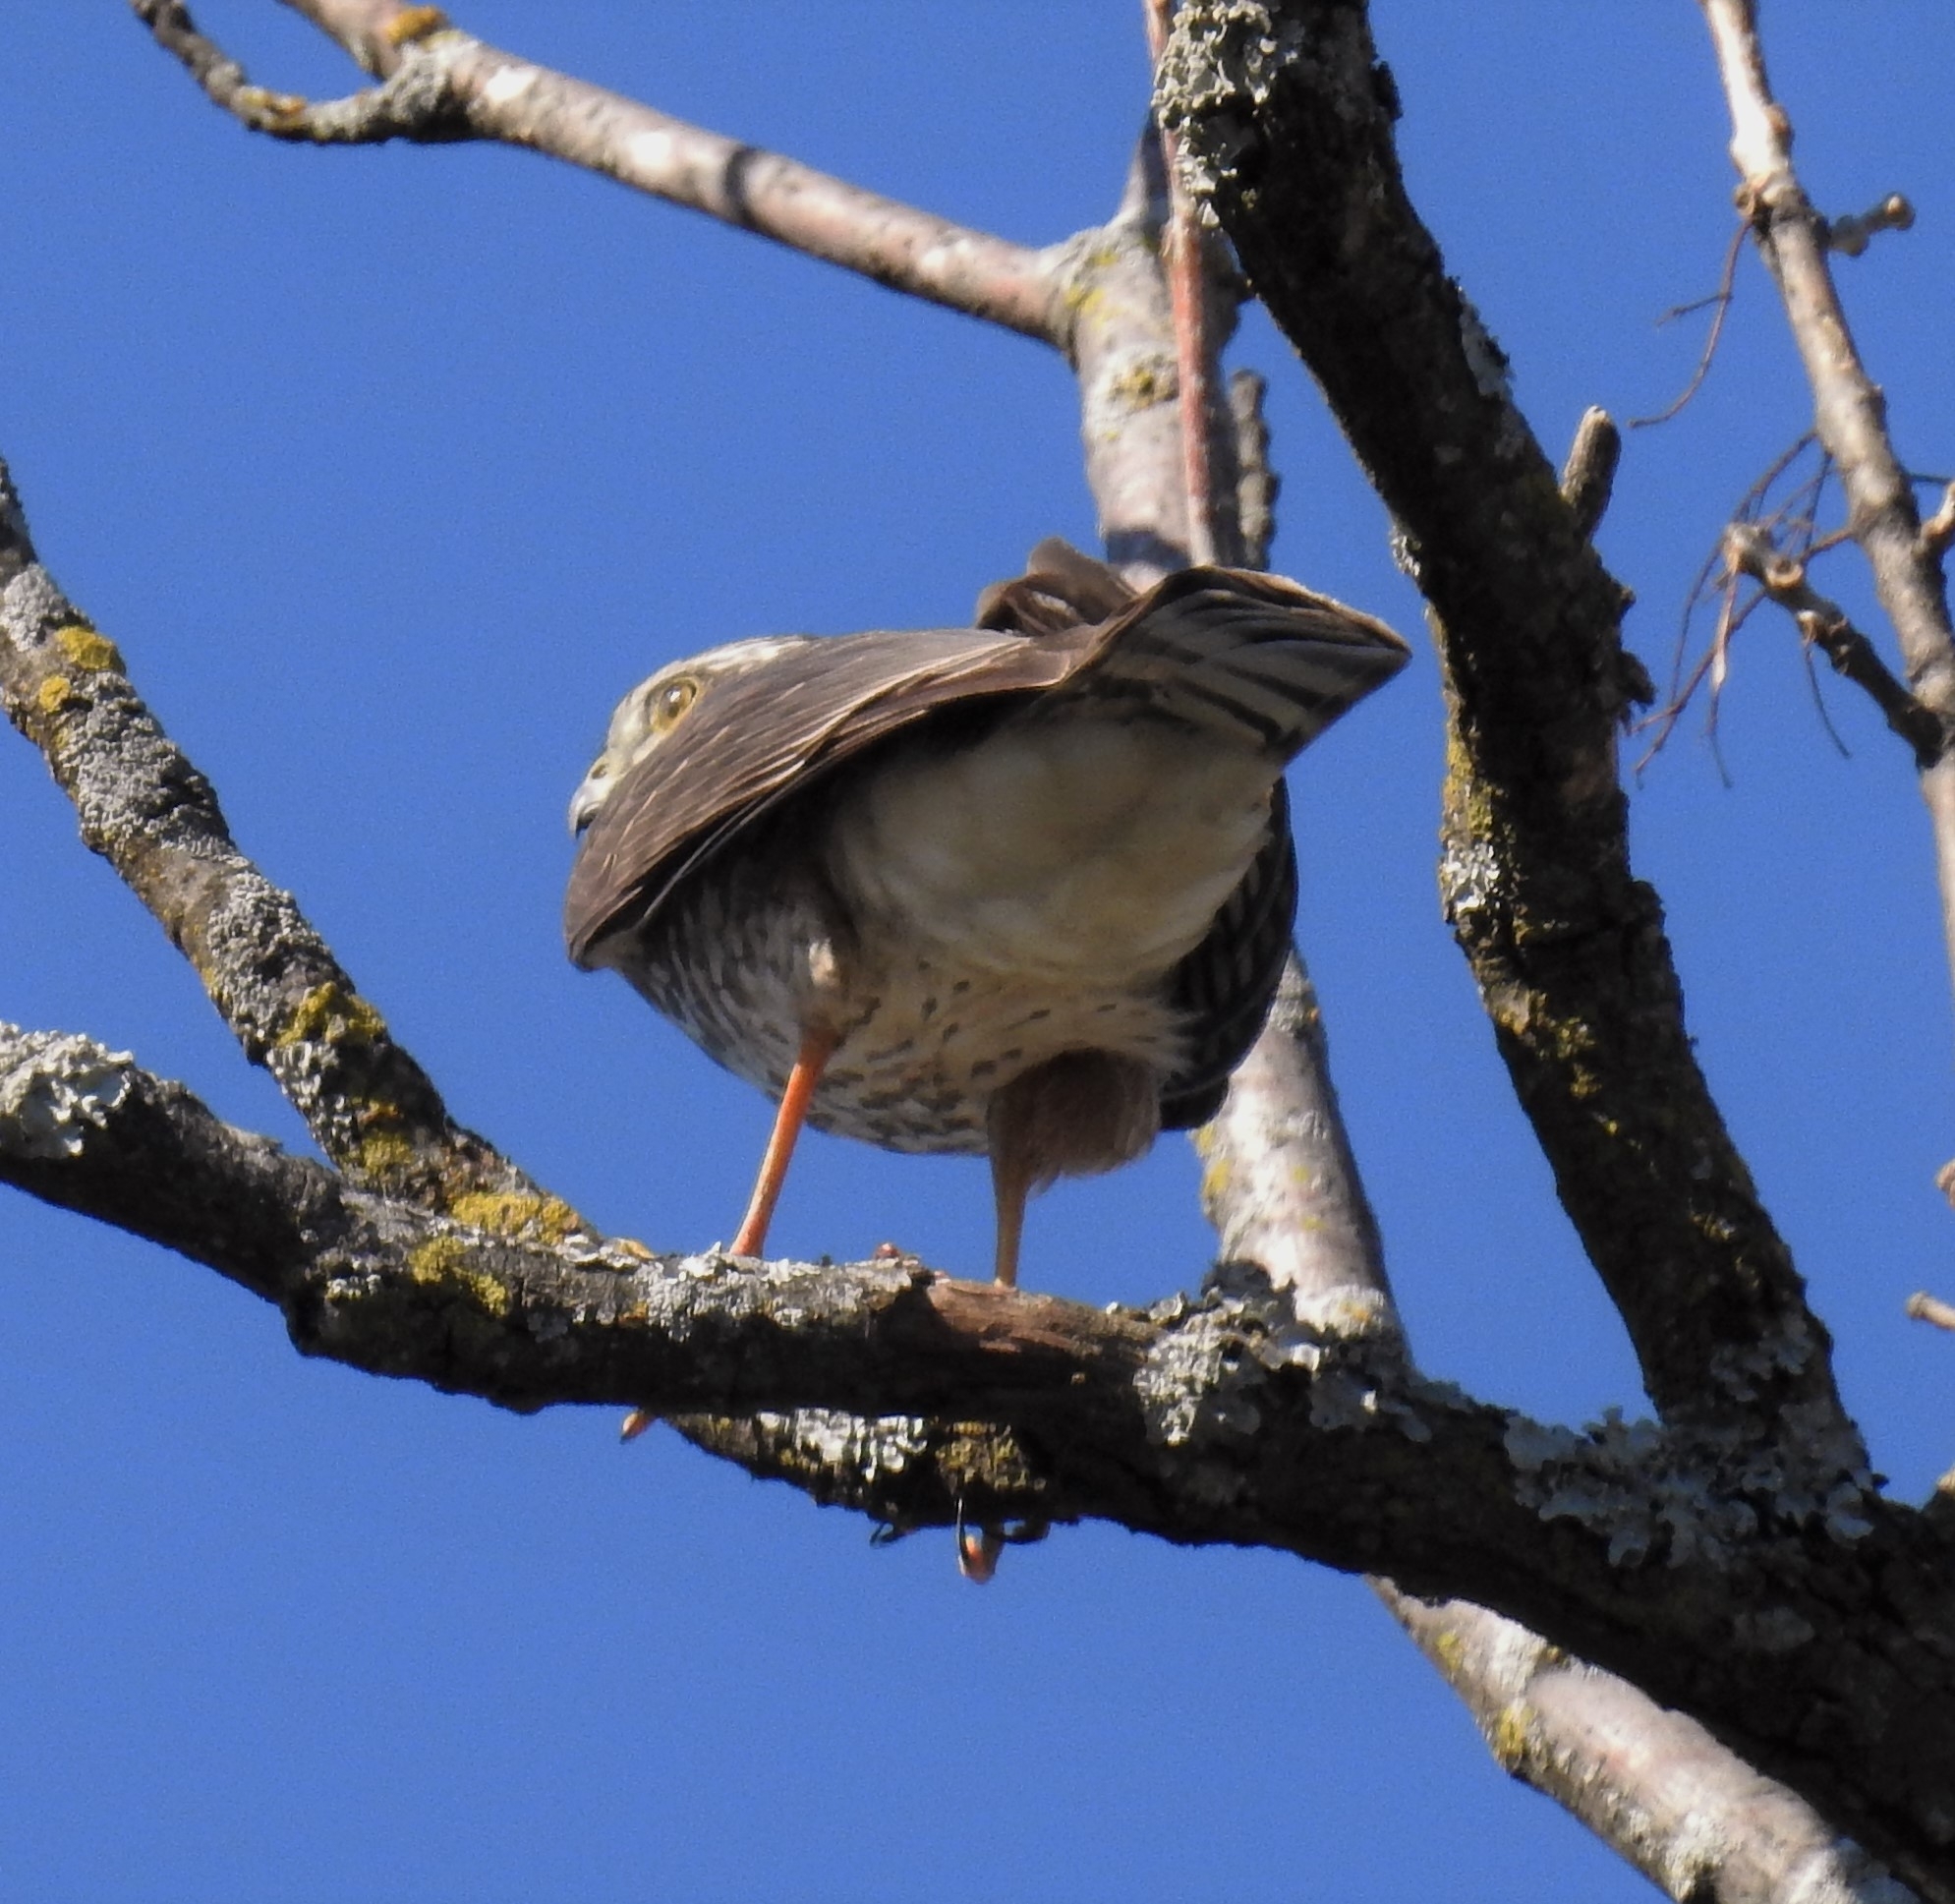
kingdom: Animalia
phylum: Chordata
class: Aves
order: Accipitriformes
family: Accipitridae
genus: Accipiter
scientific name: Accipiter striatus
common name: Sharp-shinned hawk
